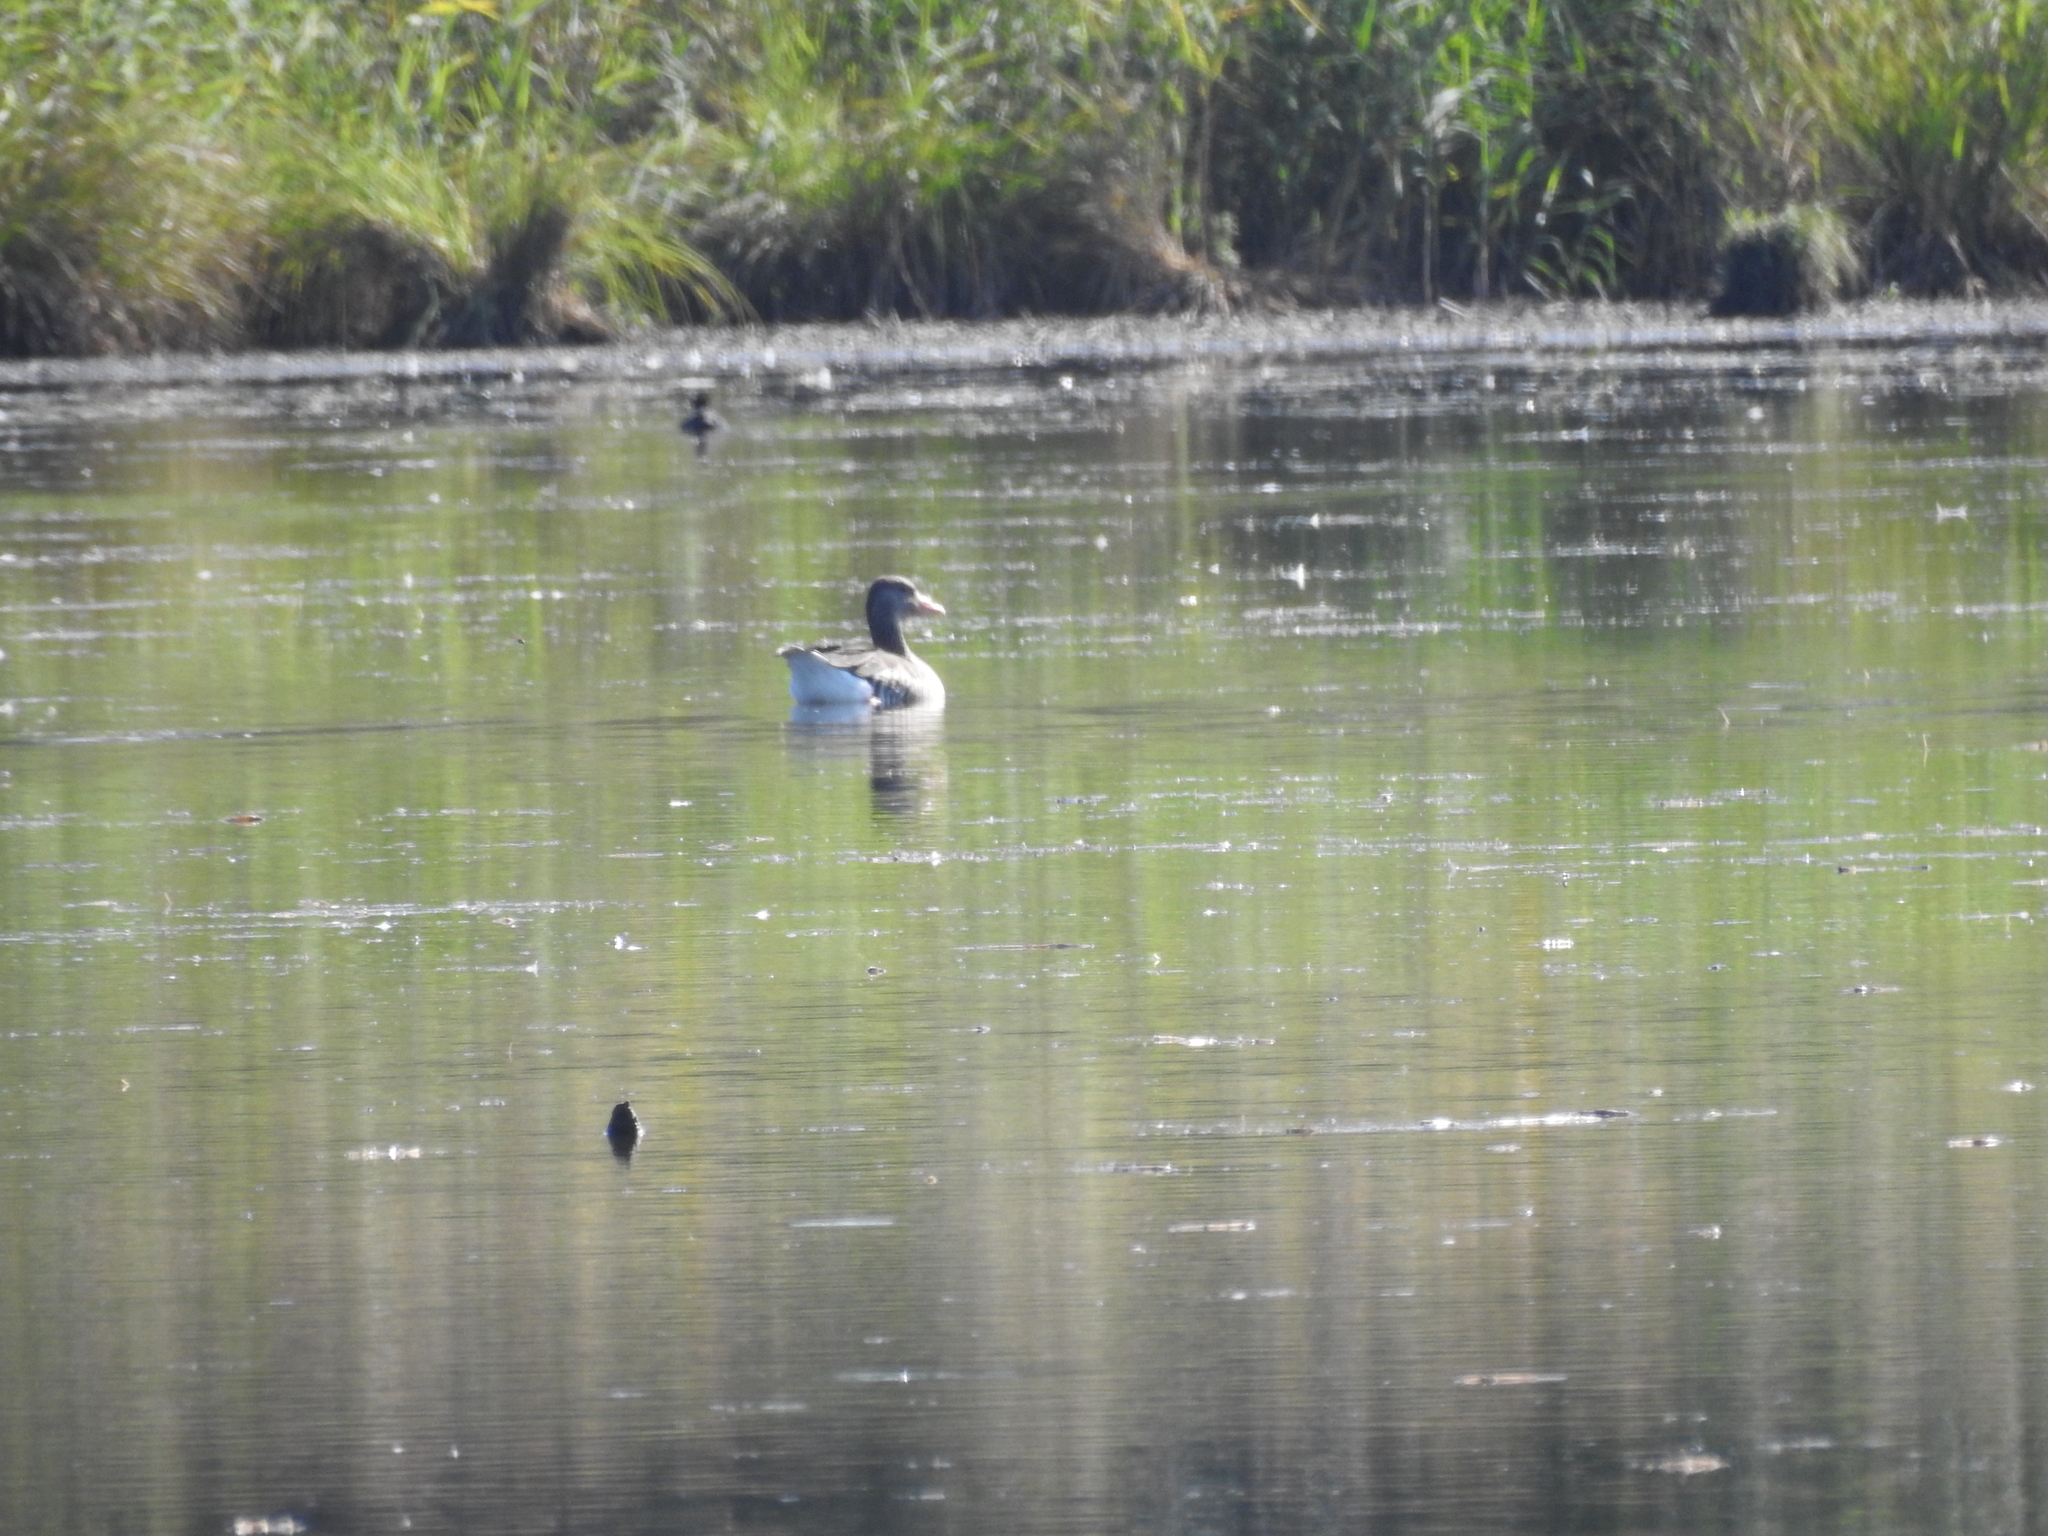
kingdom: Animalia
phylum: Chordata
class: Aves
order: Anseriformes
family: Anatidae
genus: Anser
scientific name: Anser anser
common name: Greylag goose
